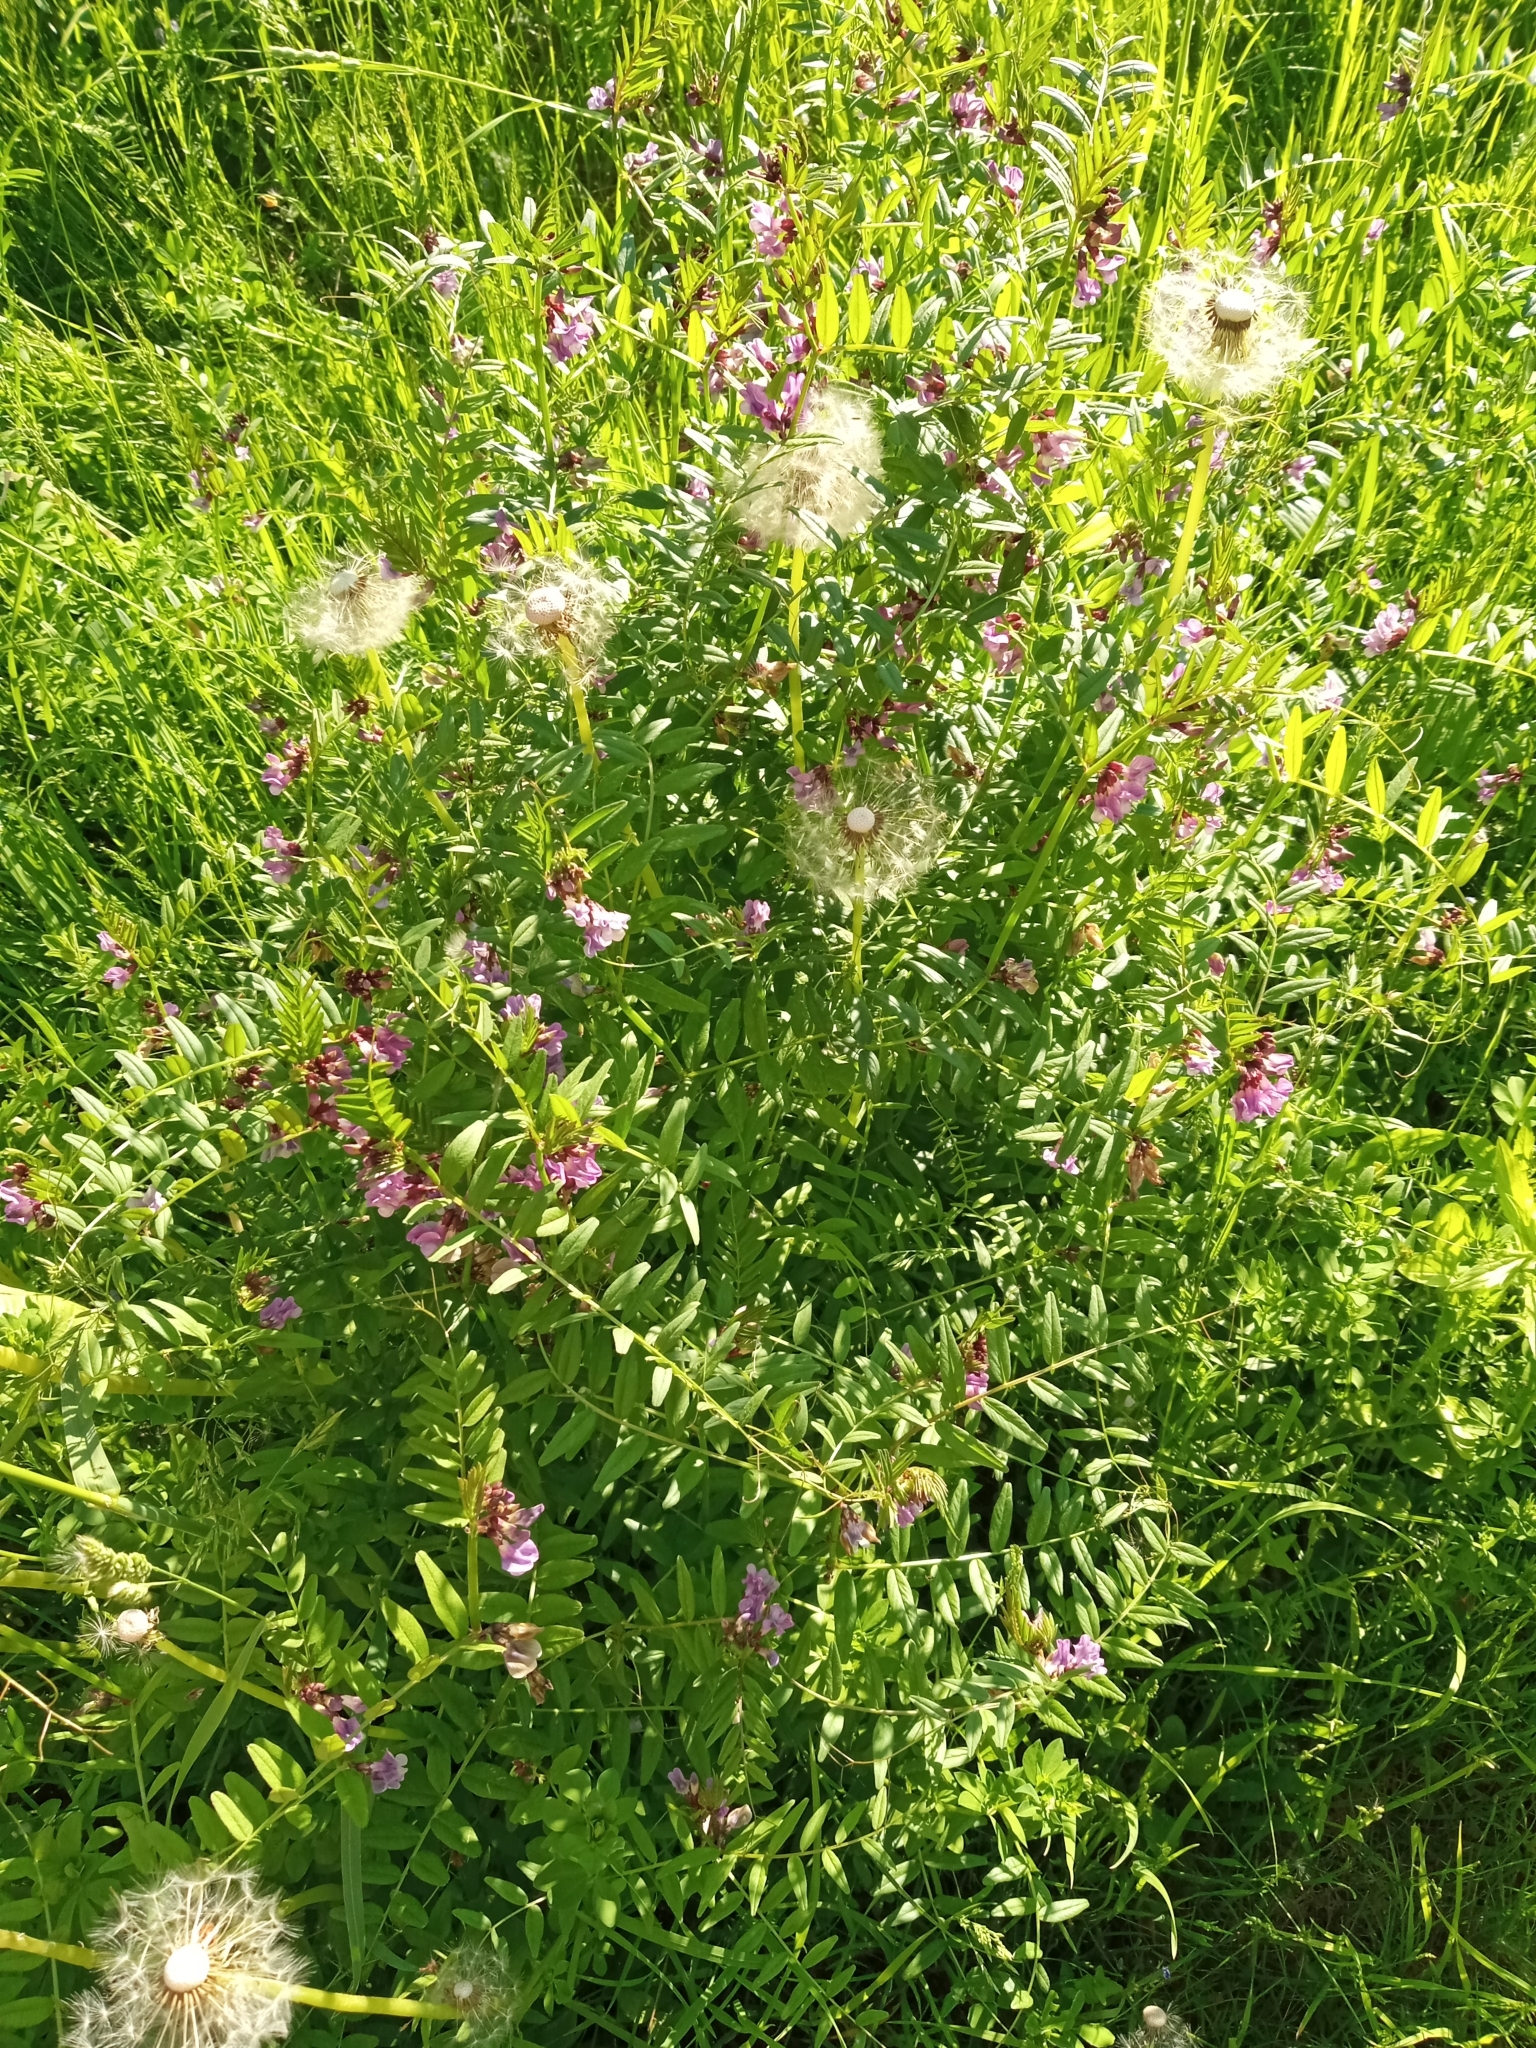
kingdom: Plantae
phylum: Tracheophyta
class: Magnoliopsida
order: Fabales
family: Fabaceae
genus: Vicia
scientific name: Vicia sepium
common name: Bush vetch
